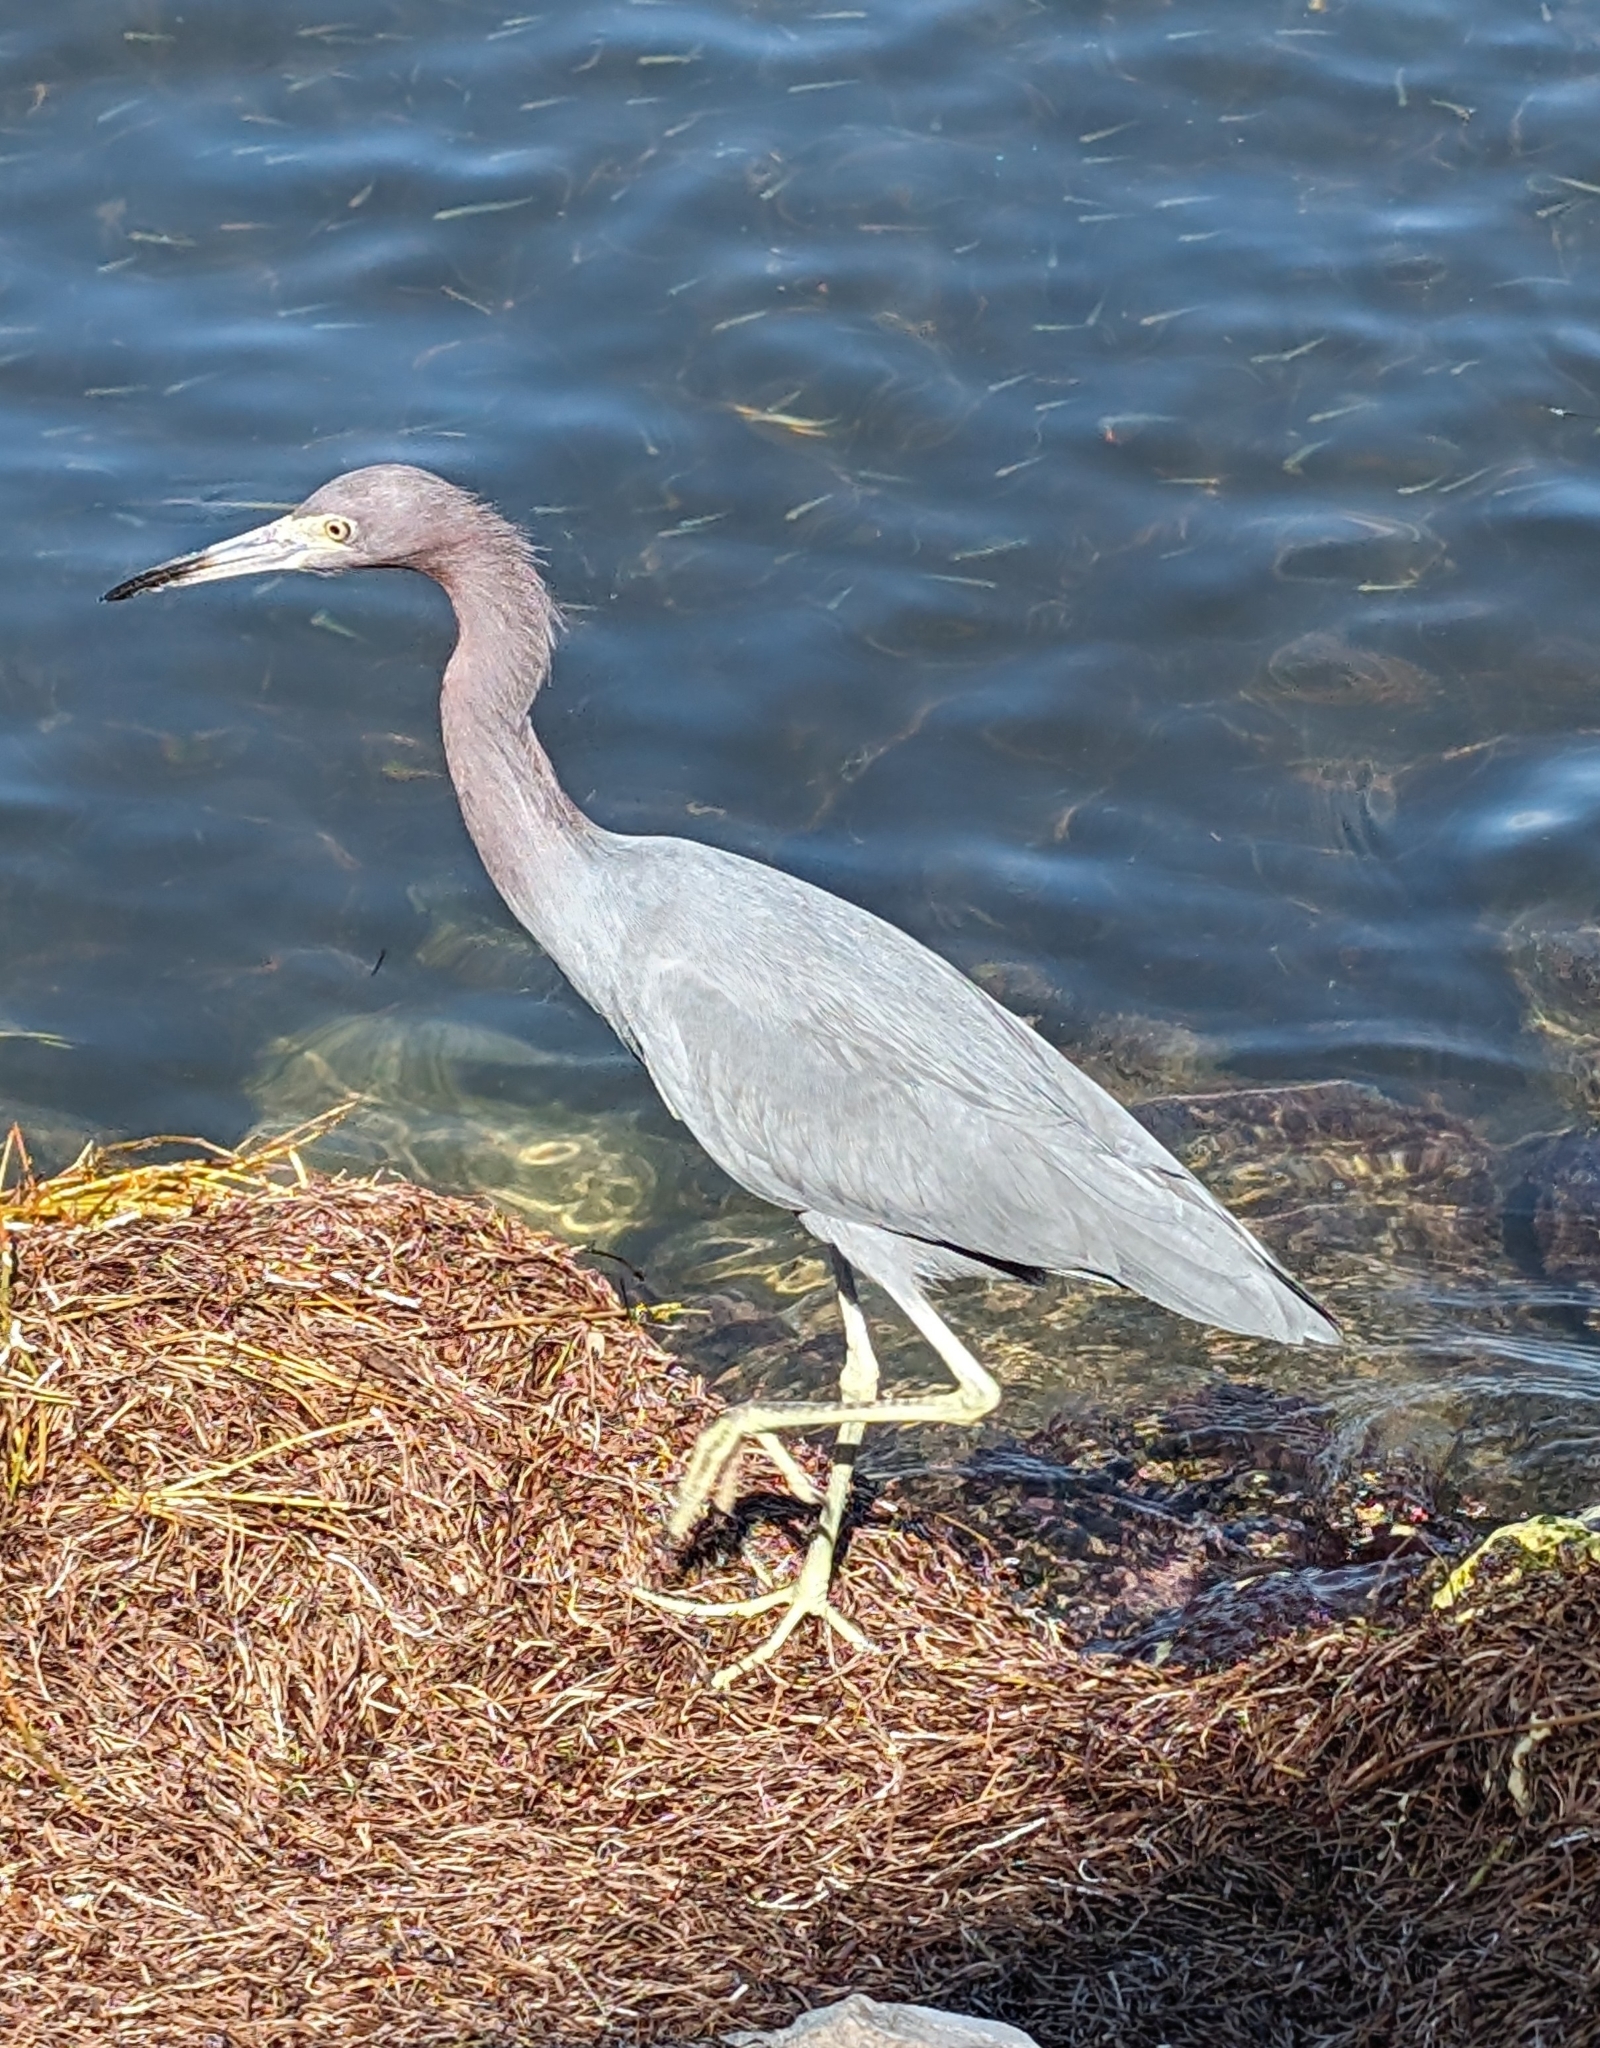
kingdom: Animalia
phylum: Chordata
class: Aves
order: Pelecaniformes
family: Ardeidae
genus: Egretta
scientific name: Egretta caerulea
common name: Little blue heron
